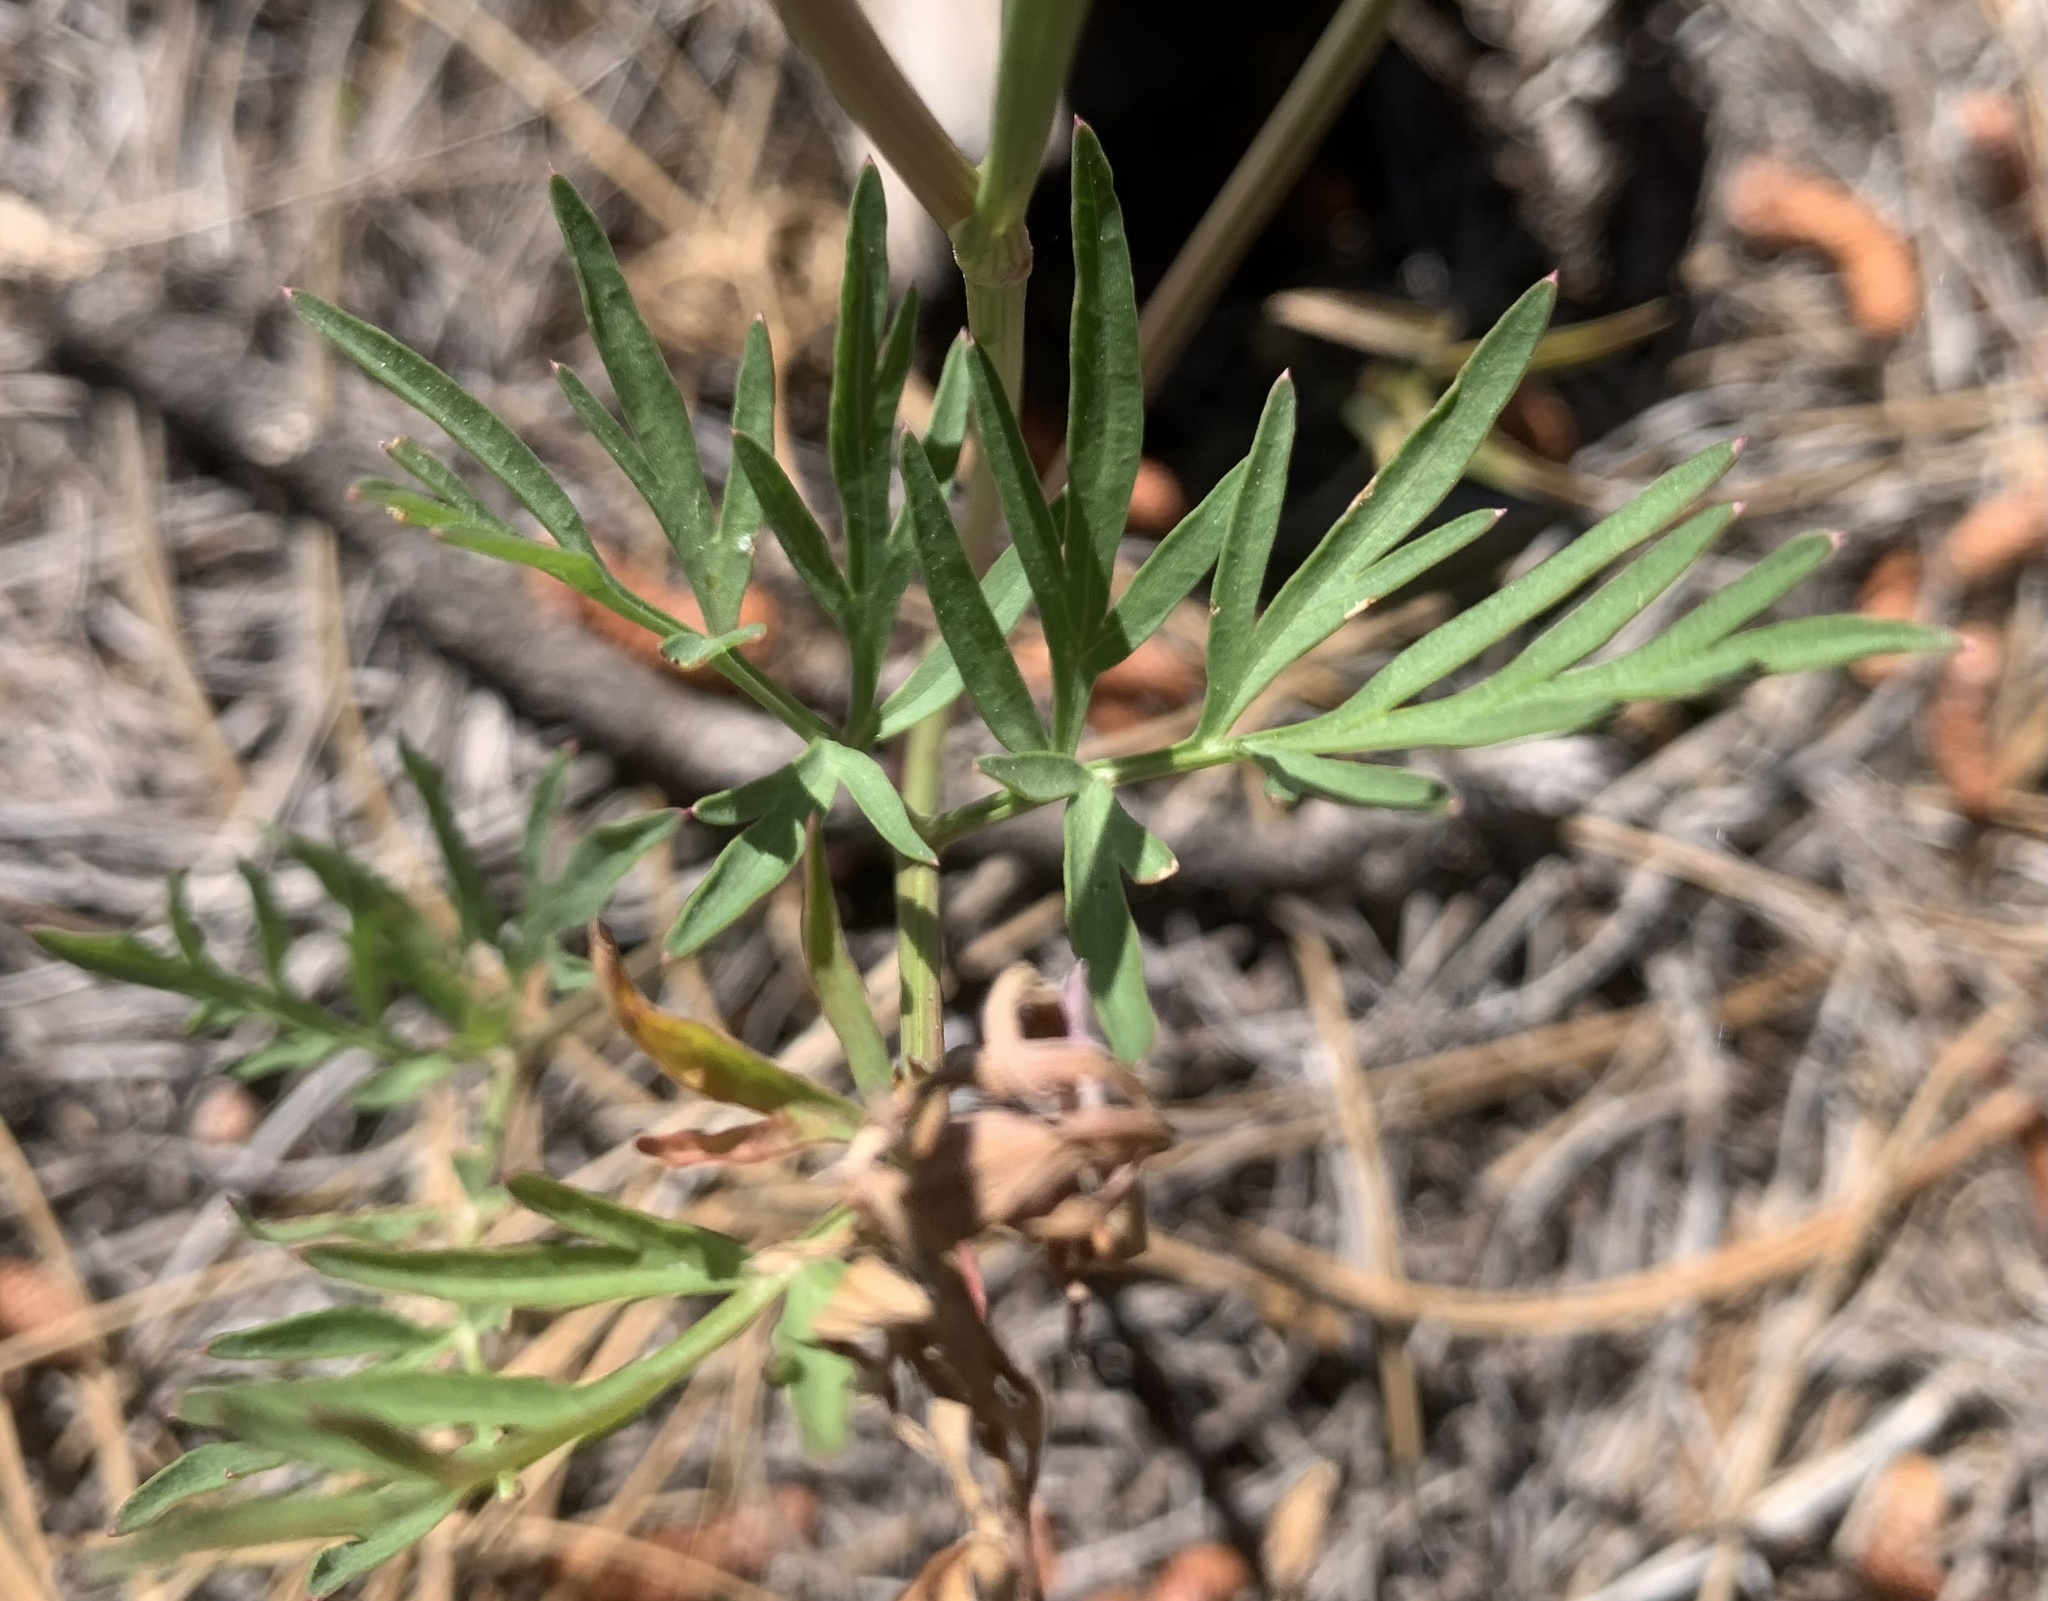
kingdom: Plantae
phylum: Tracheophyta
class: Magnoliopsida
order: Apiales
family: Apiaceae
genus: Cymopterus
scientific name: Cymopterus lemmonii
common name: Lemmon's spring-parsley
